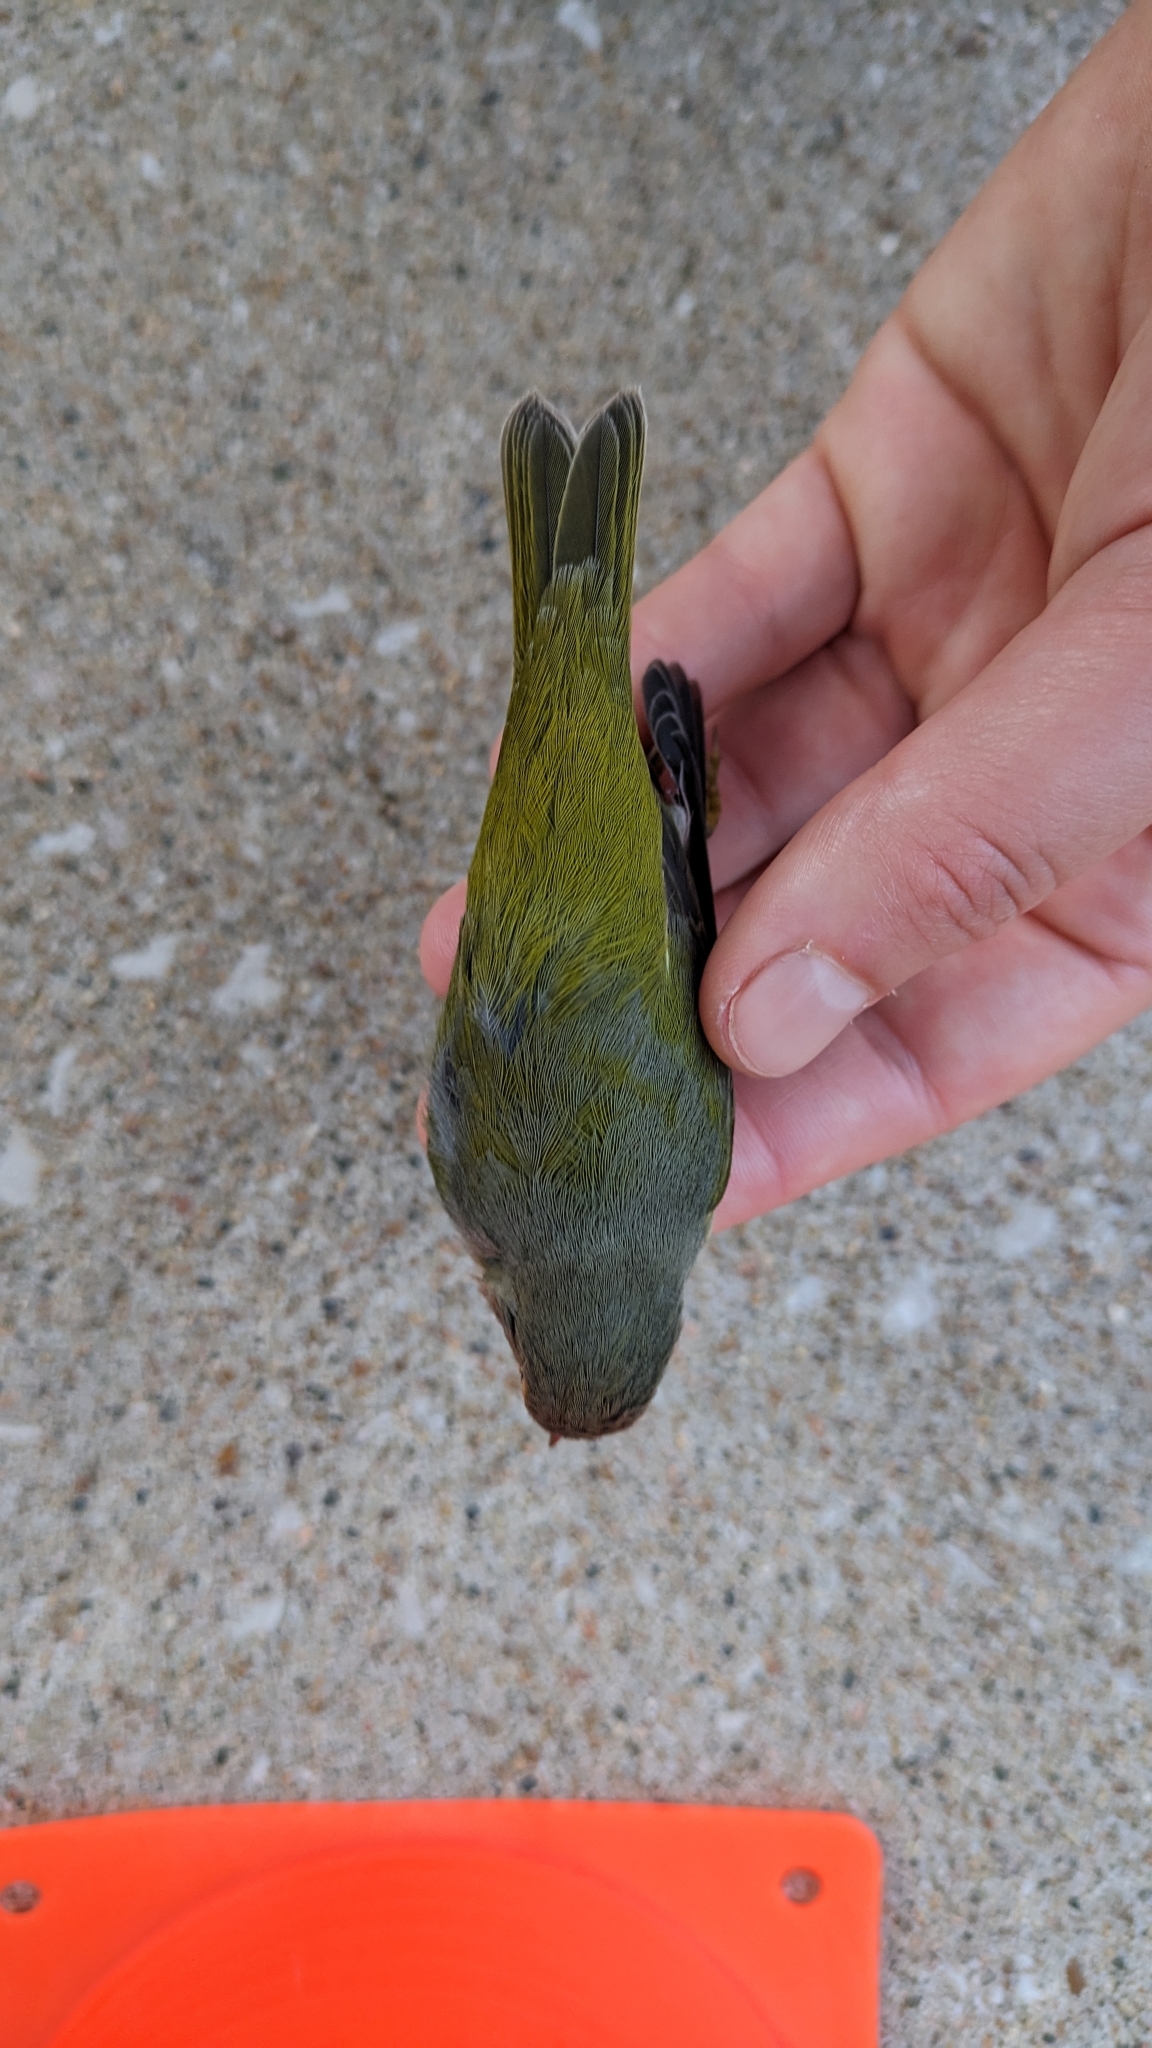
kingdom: Animalia
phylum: Chordata
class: Aves
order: Passeriformes
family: Parulidae
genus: Leiothlypis
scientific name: Leiothlypis ruficapilla
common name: Nashville warbler
